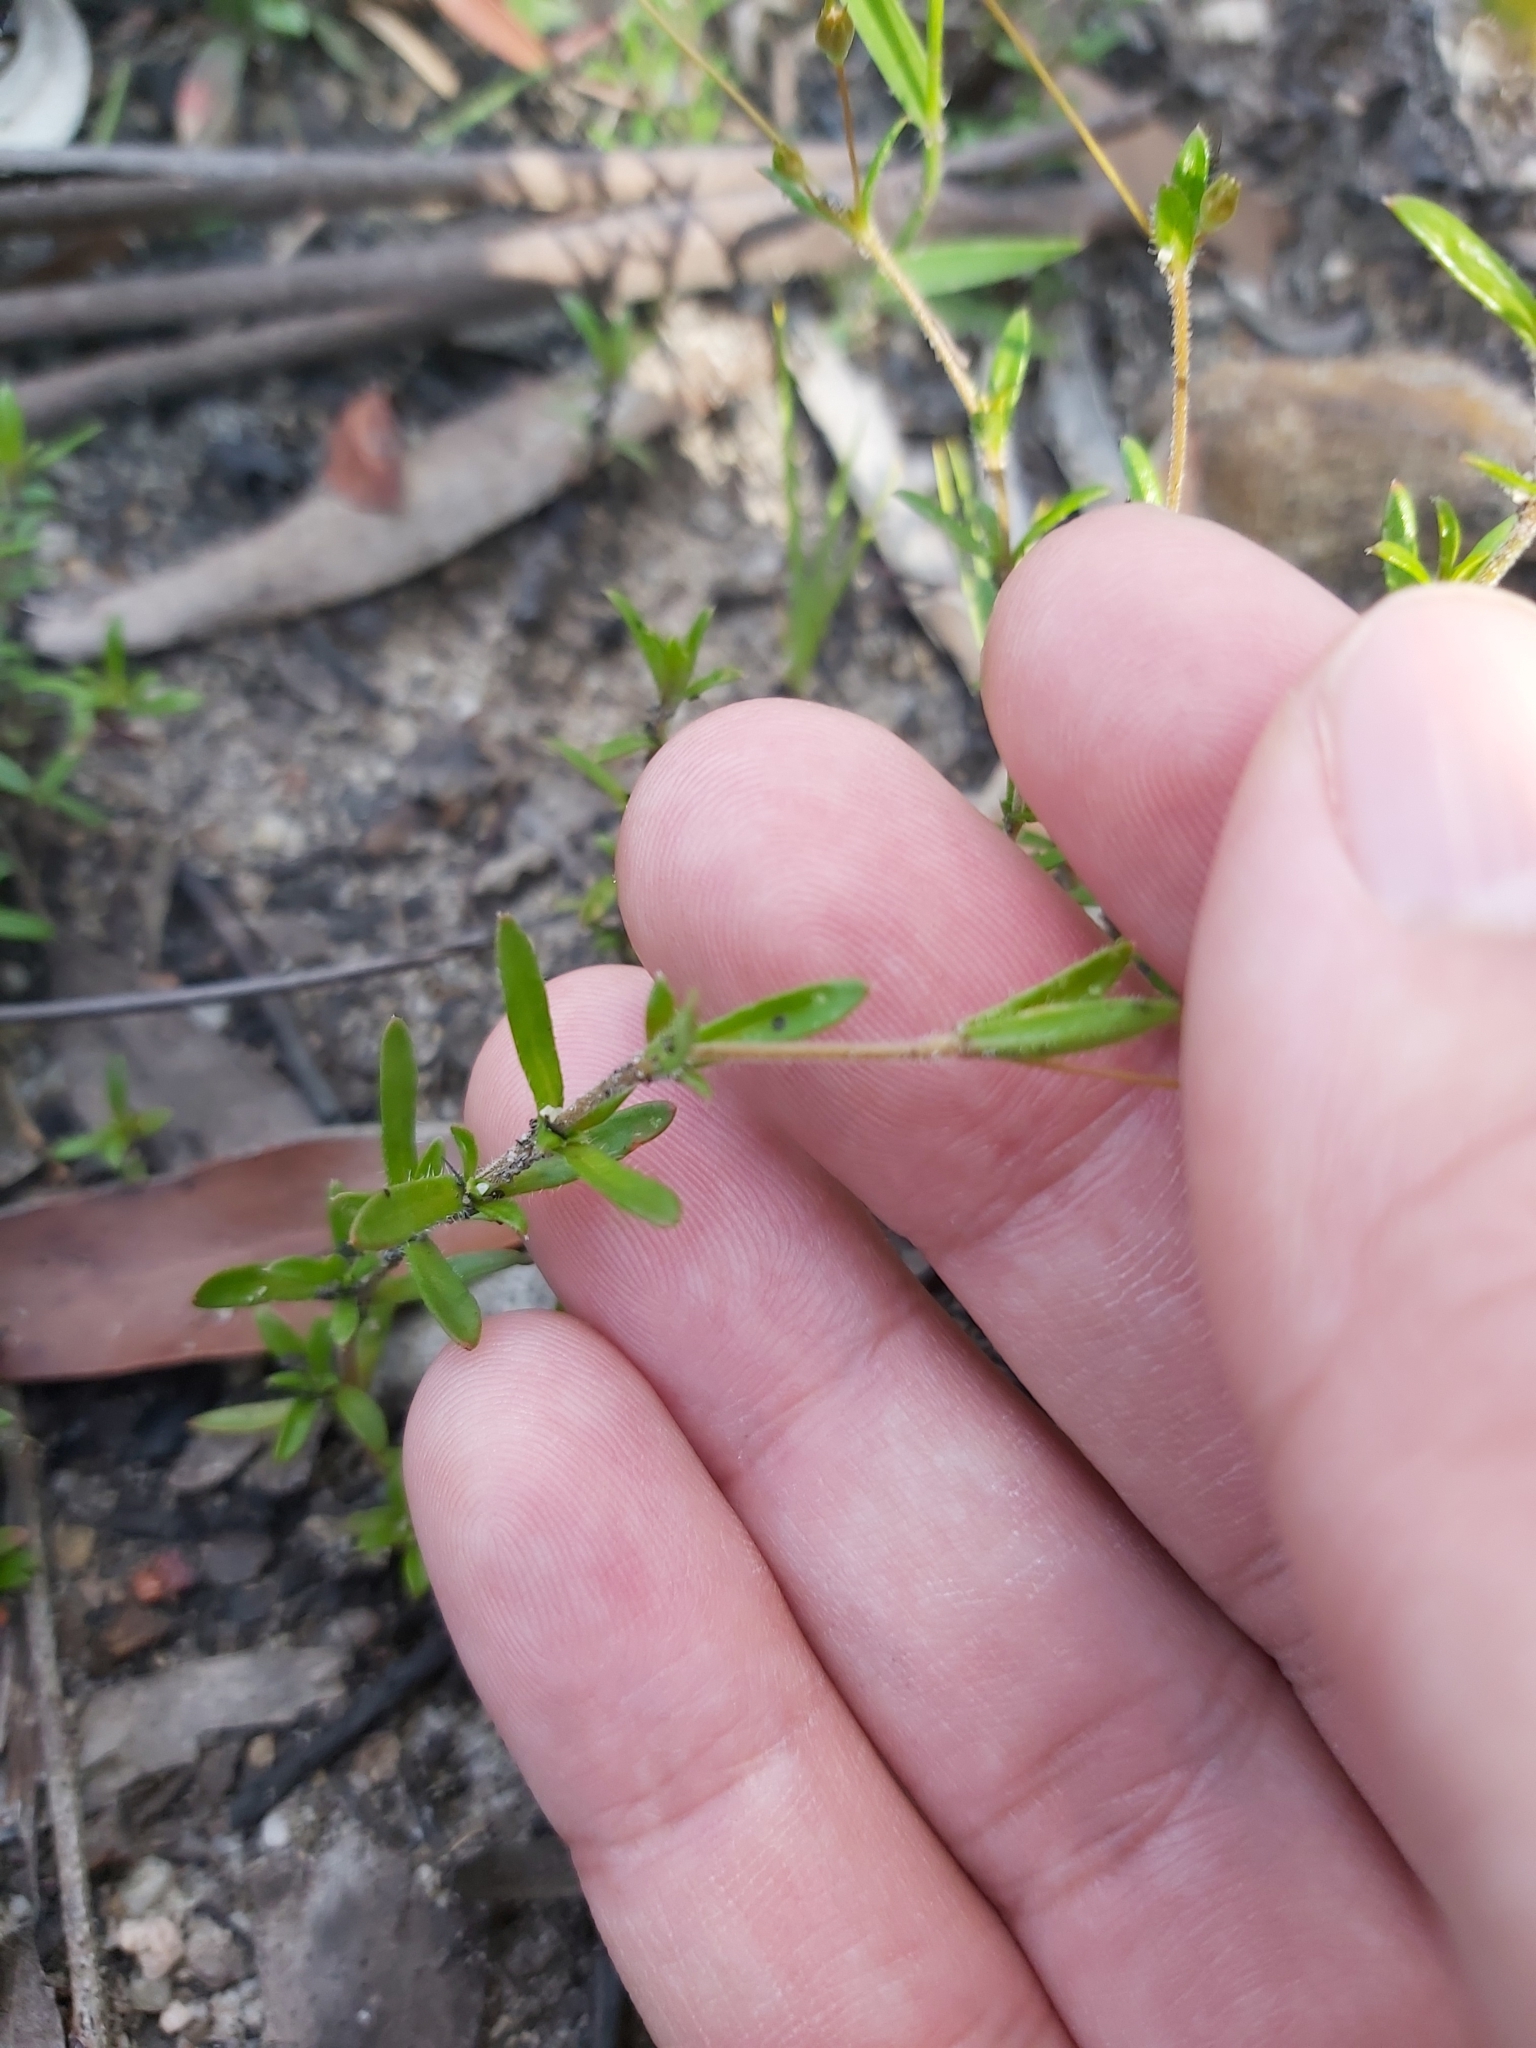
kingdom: Plantae
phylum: Tracheophyta
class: Magnoliopsida
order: Gentianales
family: Loganiaceae
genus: Mitrasacme
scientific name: Mitrasacme polymorpha
